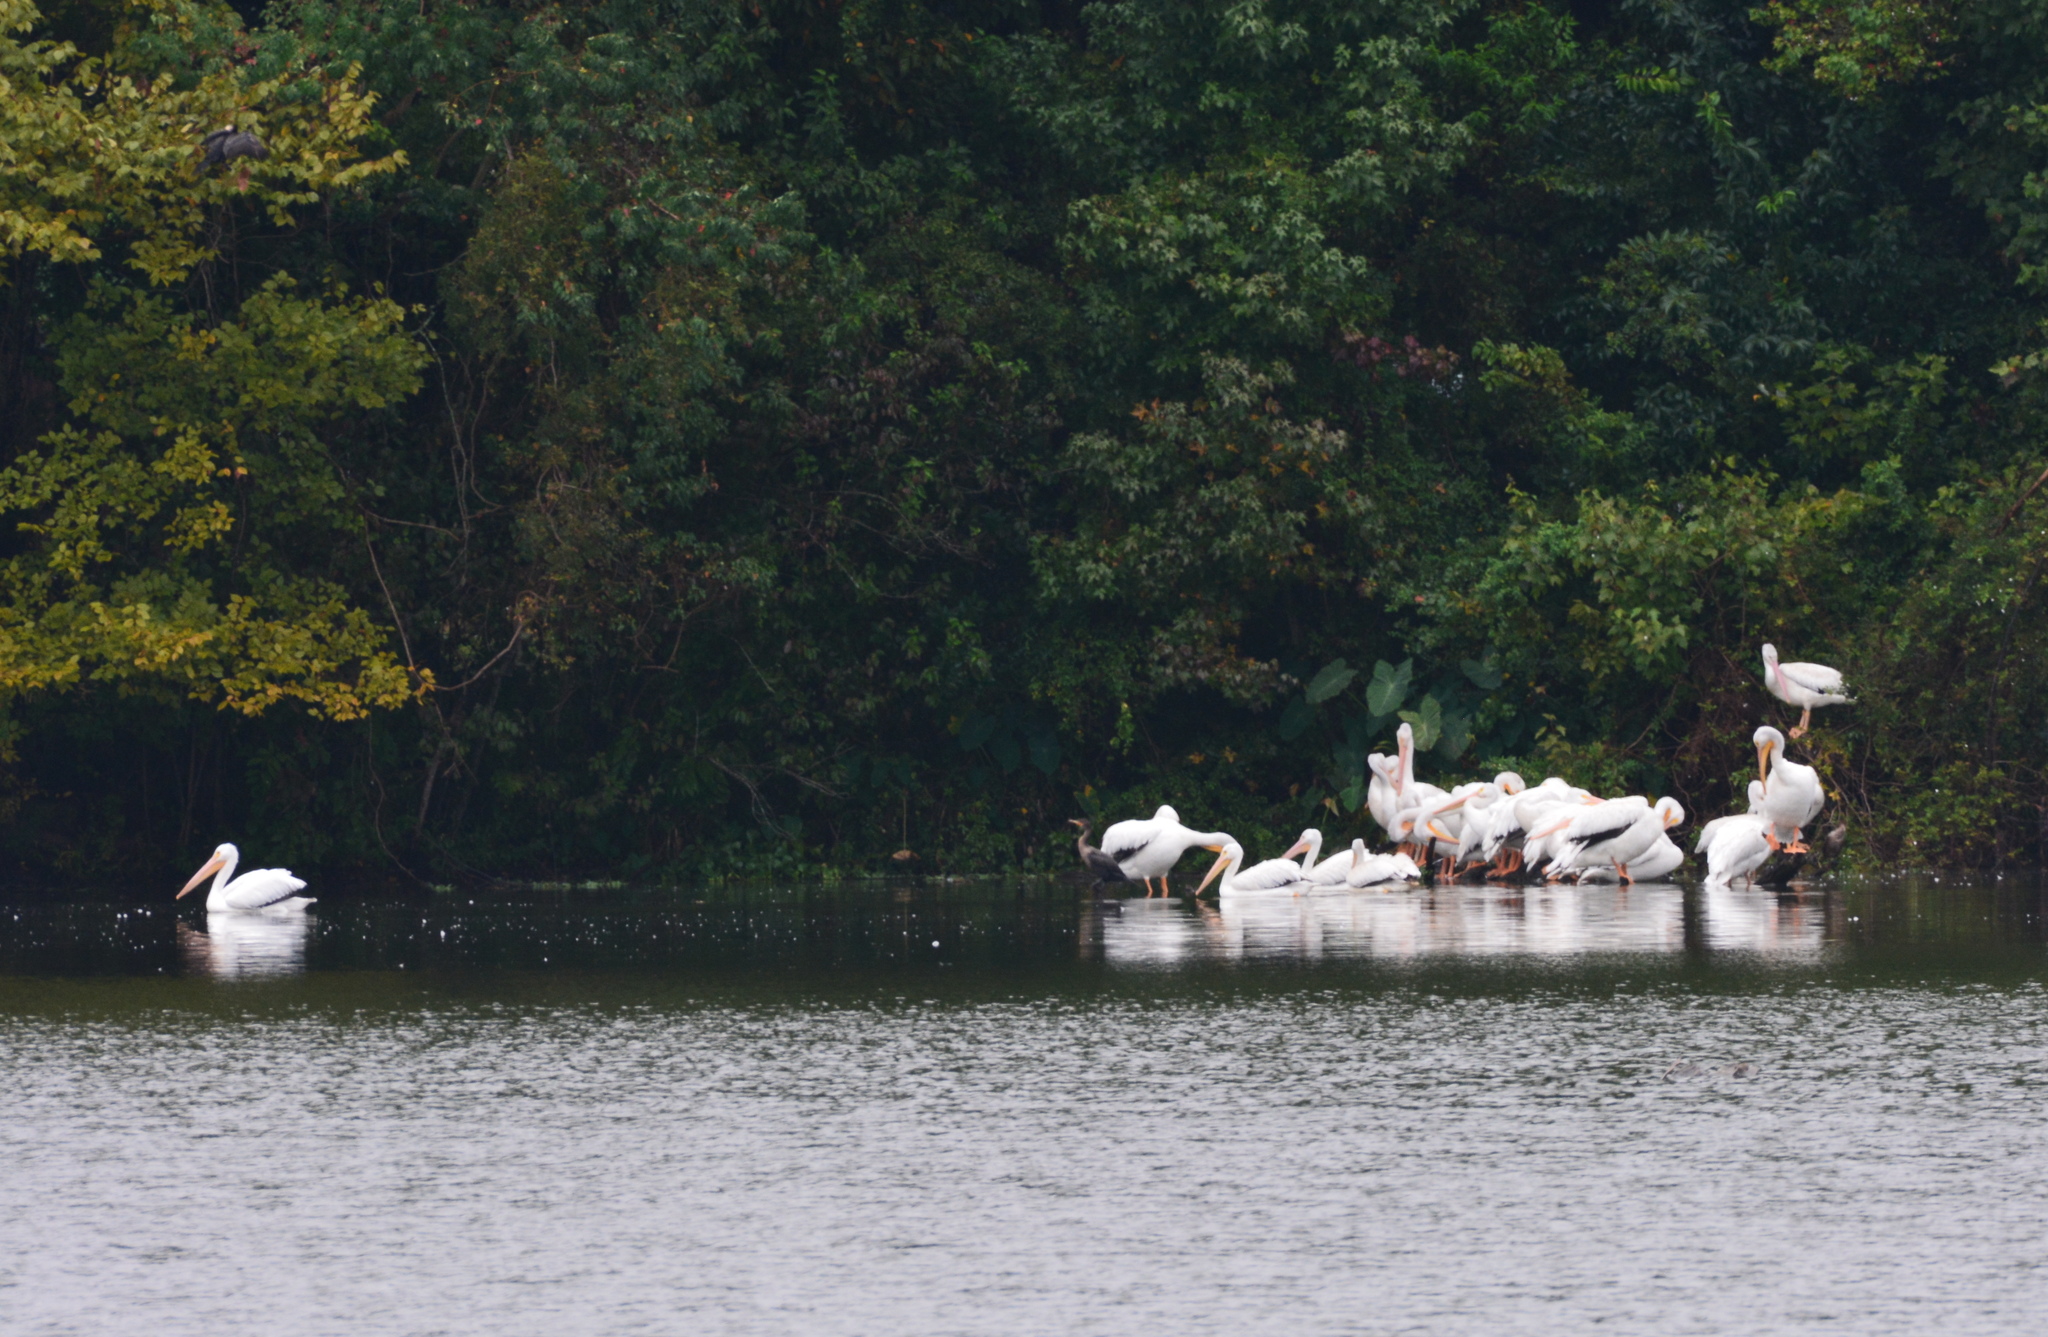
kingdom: Animalia
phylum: Chordata
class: Aves
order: Pelecaniformes
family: Pelecanidae
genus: Pelecanus
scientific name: Pelecanus erythrorhynchos
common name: American white pelican
